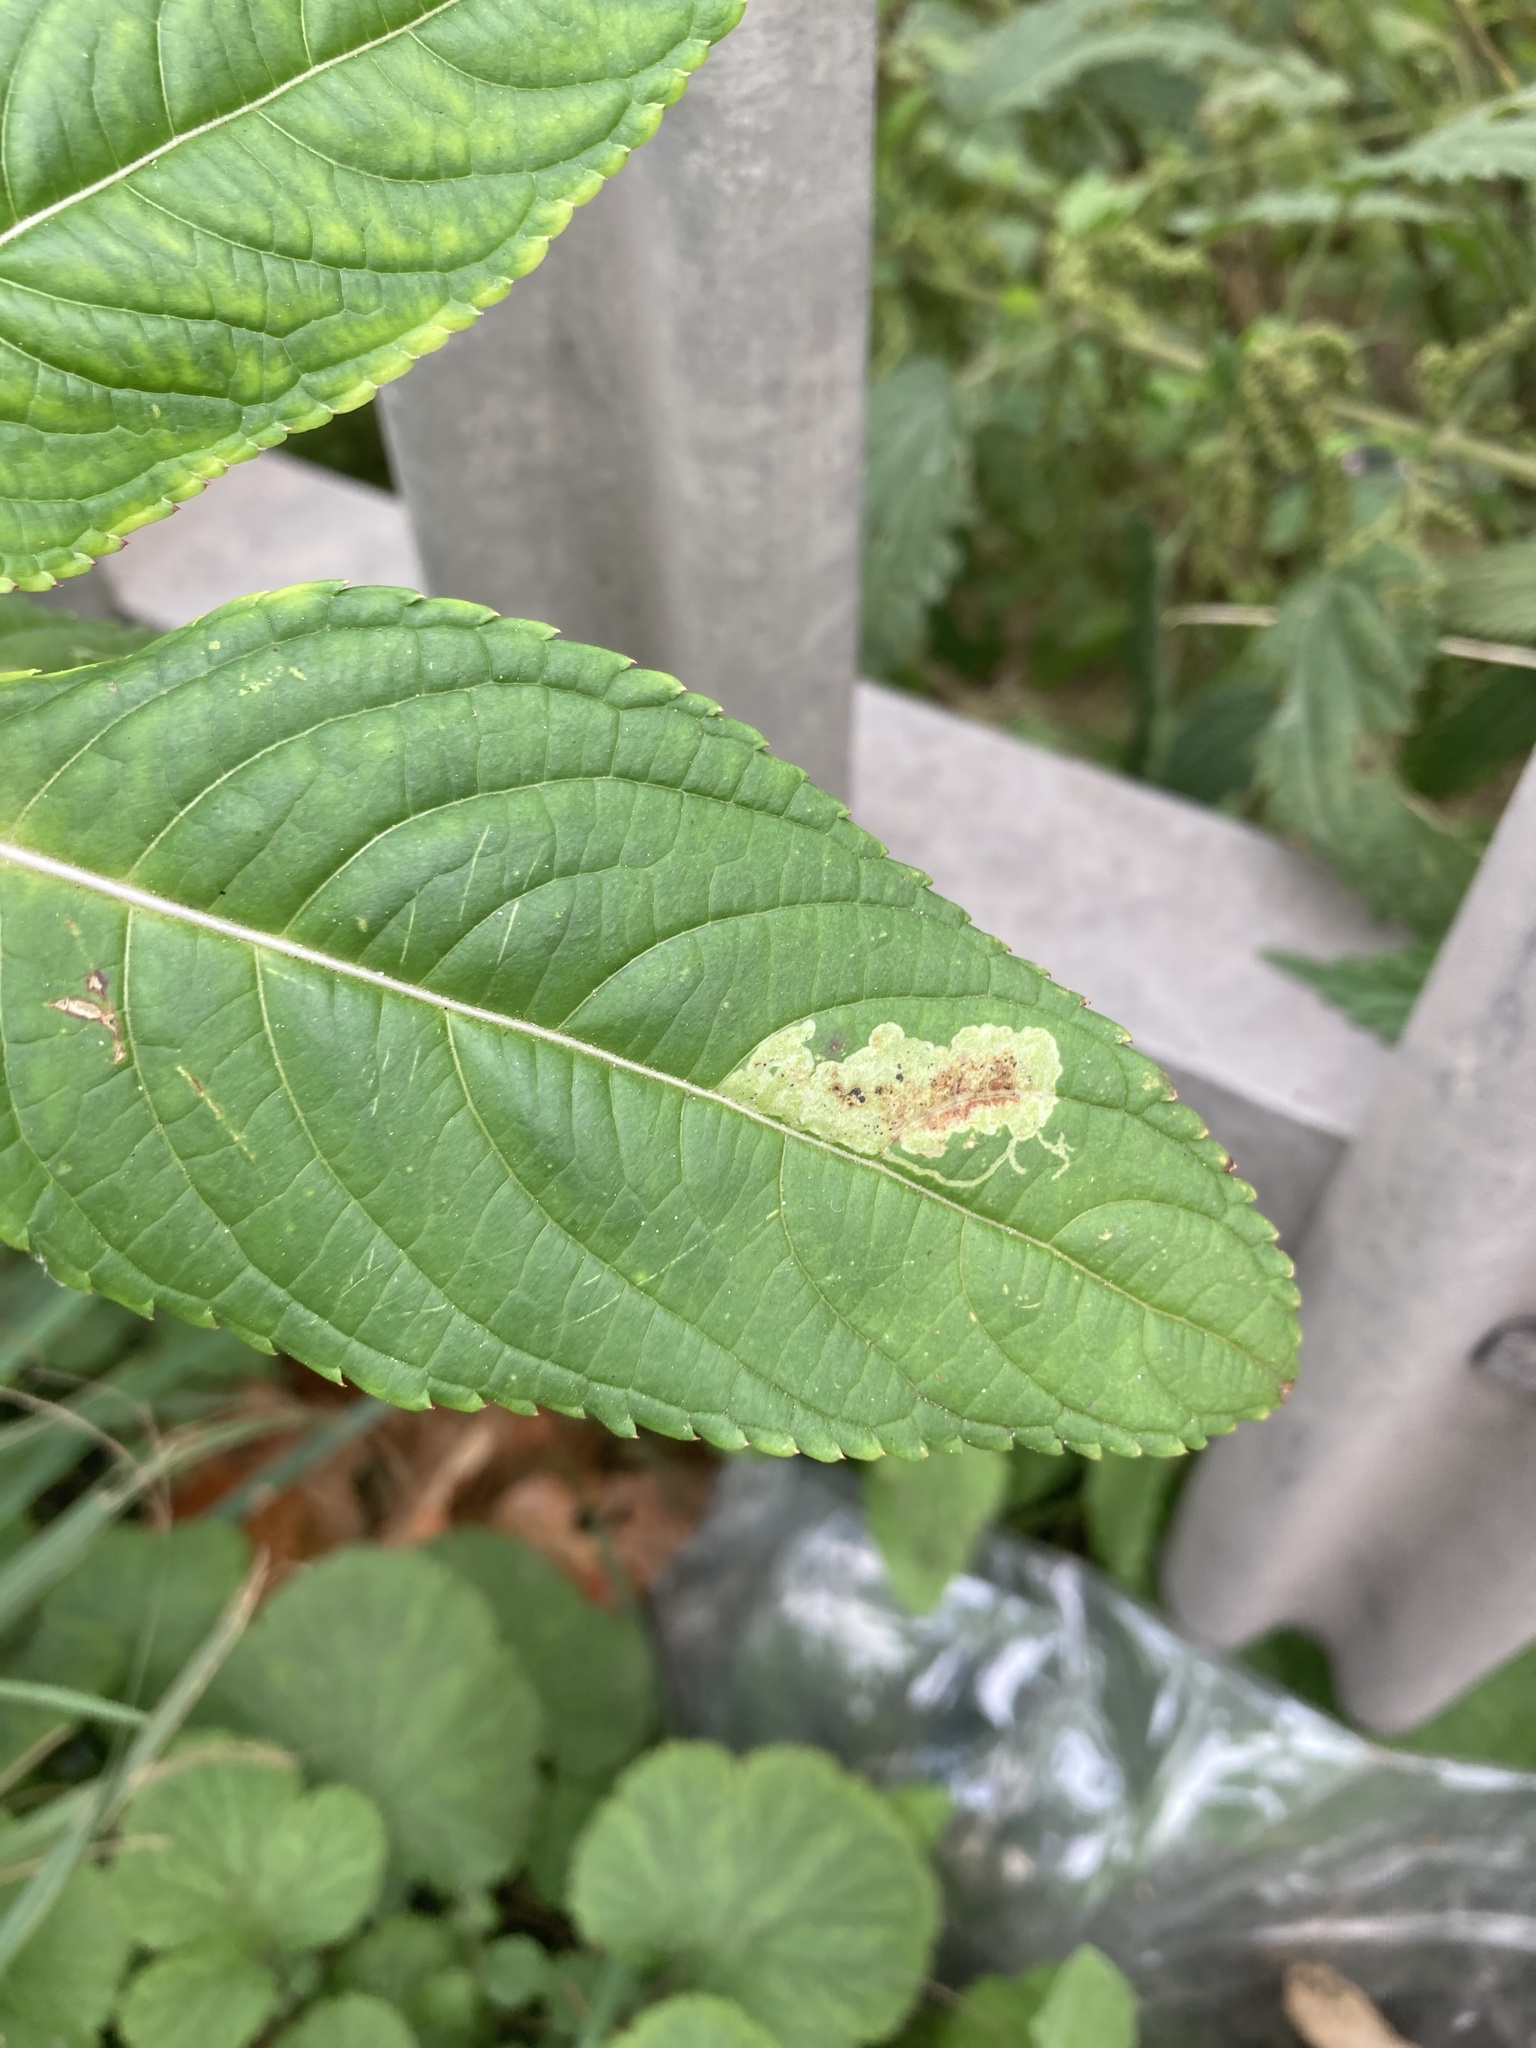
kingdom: Animalia
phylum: Arthropoda
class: Insecta
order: Diptera
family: Agromyzidae
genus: Phytoliriomyza
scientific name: Phytoliriomyza melampyga
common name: Jewelweed leaf-miner fly
